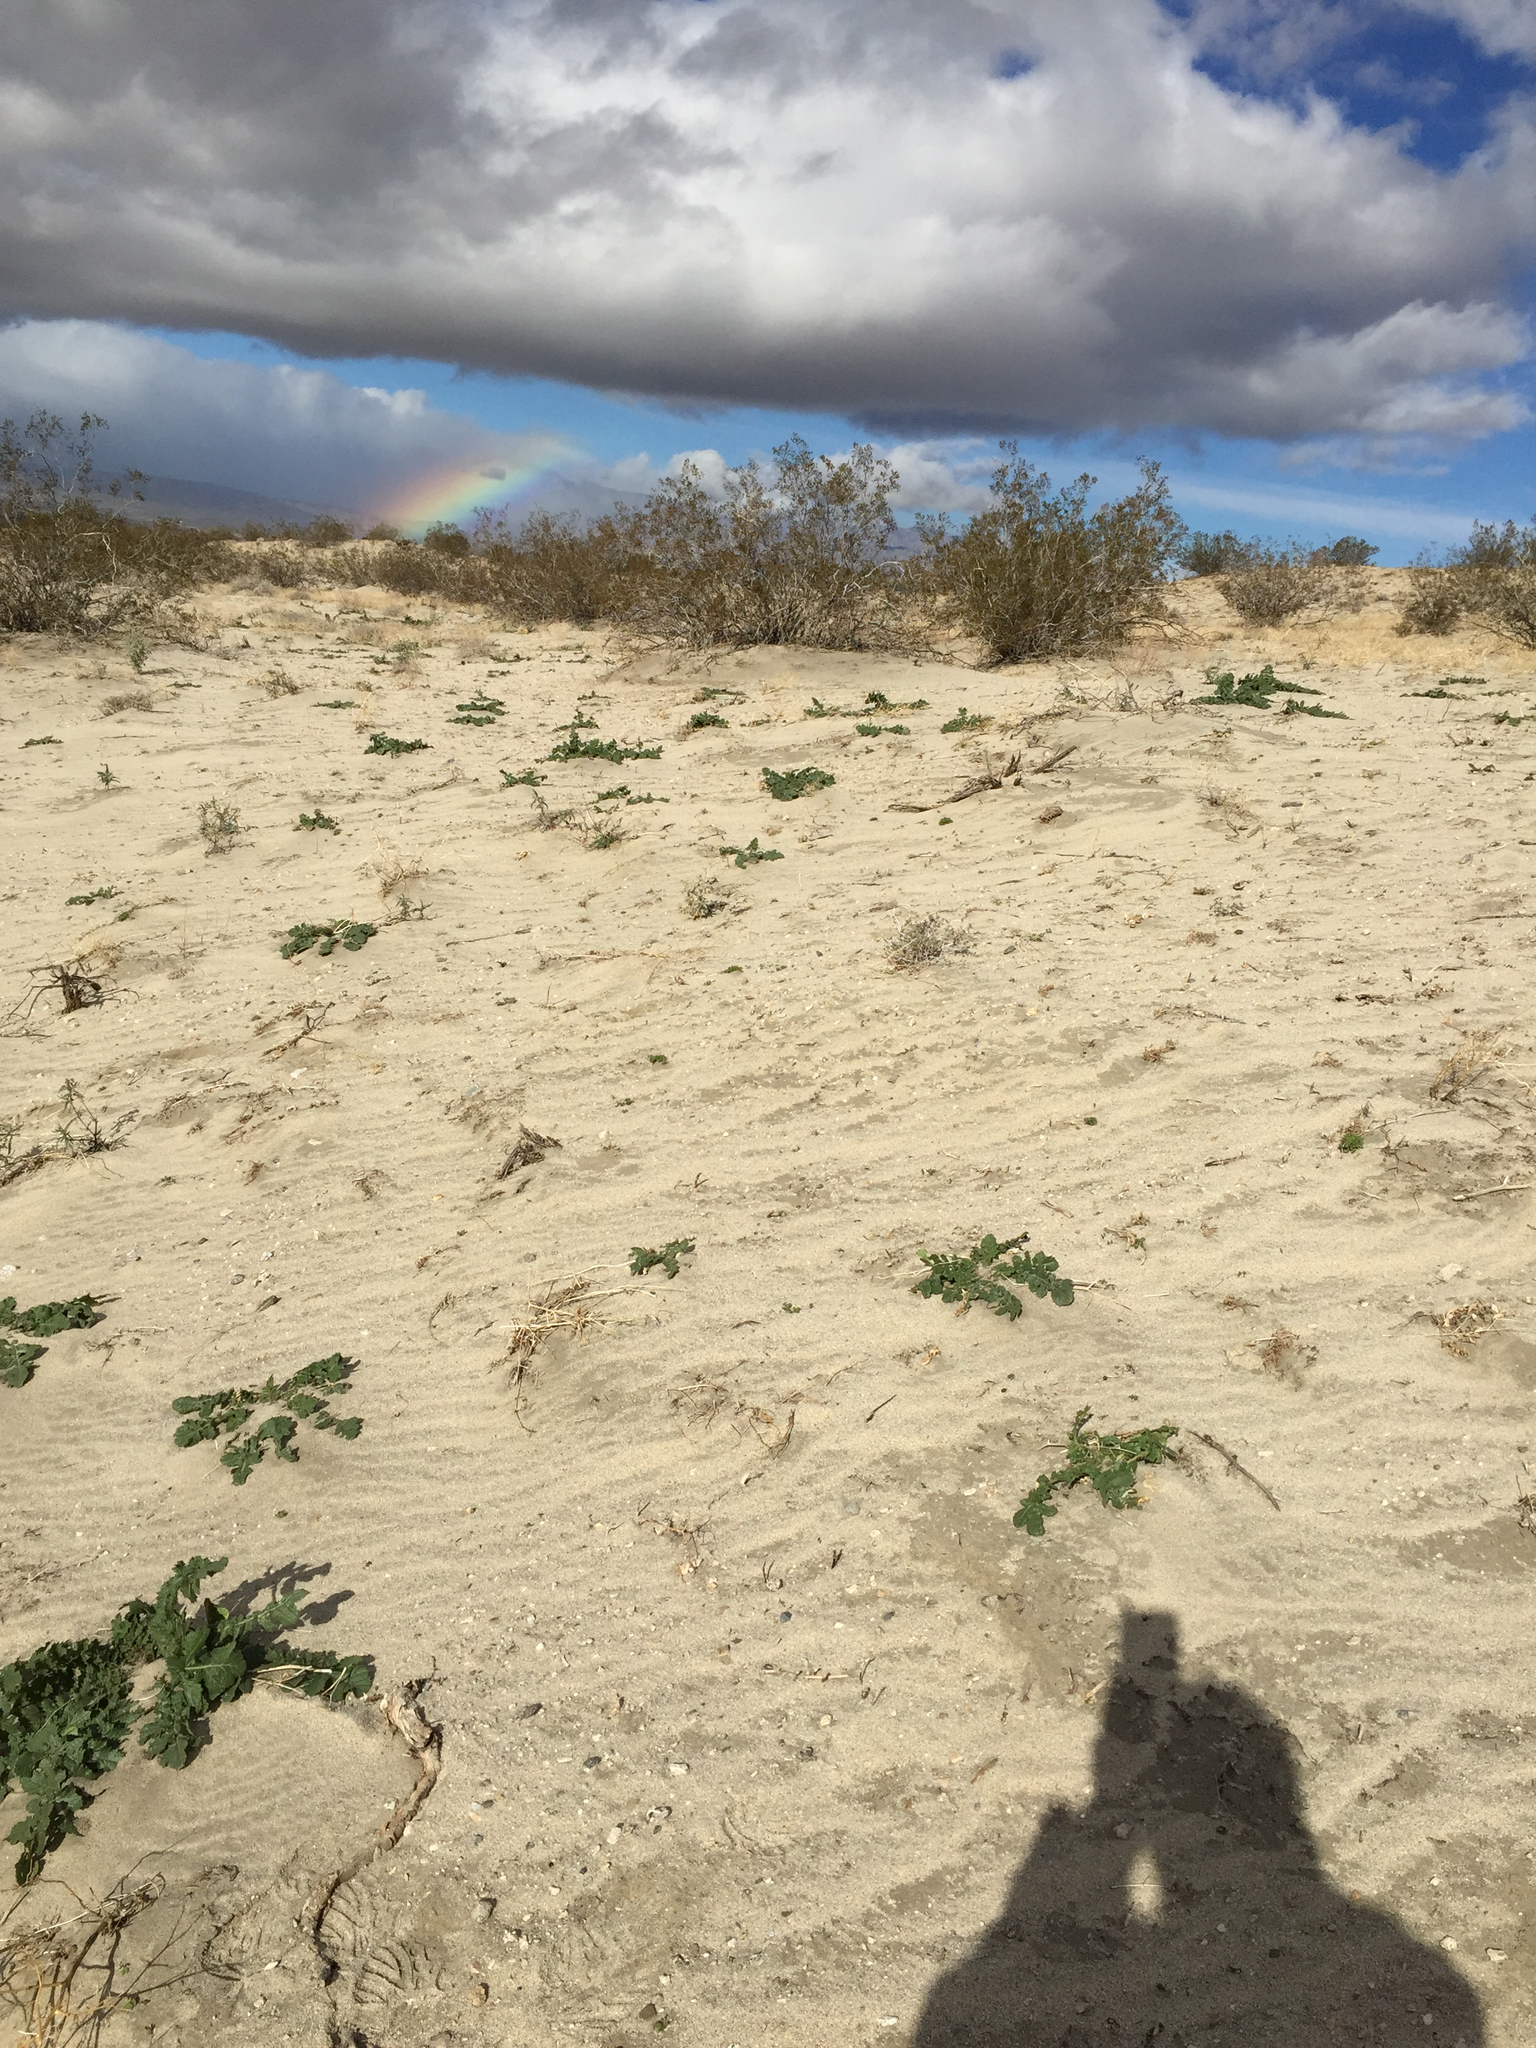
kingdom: Plantae
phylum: Tracheophyta
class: Magnoliopsida
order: Brassicales
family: Brassicaceae
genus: Brassica
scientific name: Brassica tournefortii
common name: Pale cabbage
